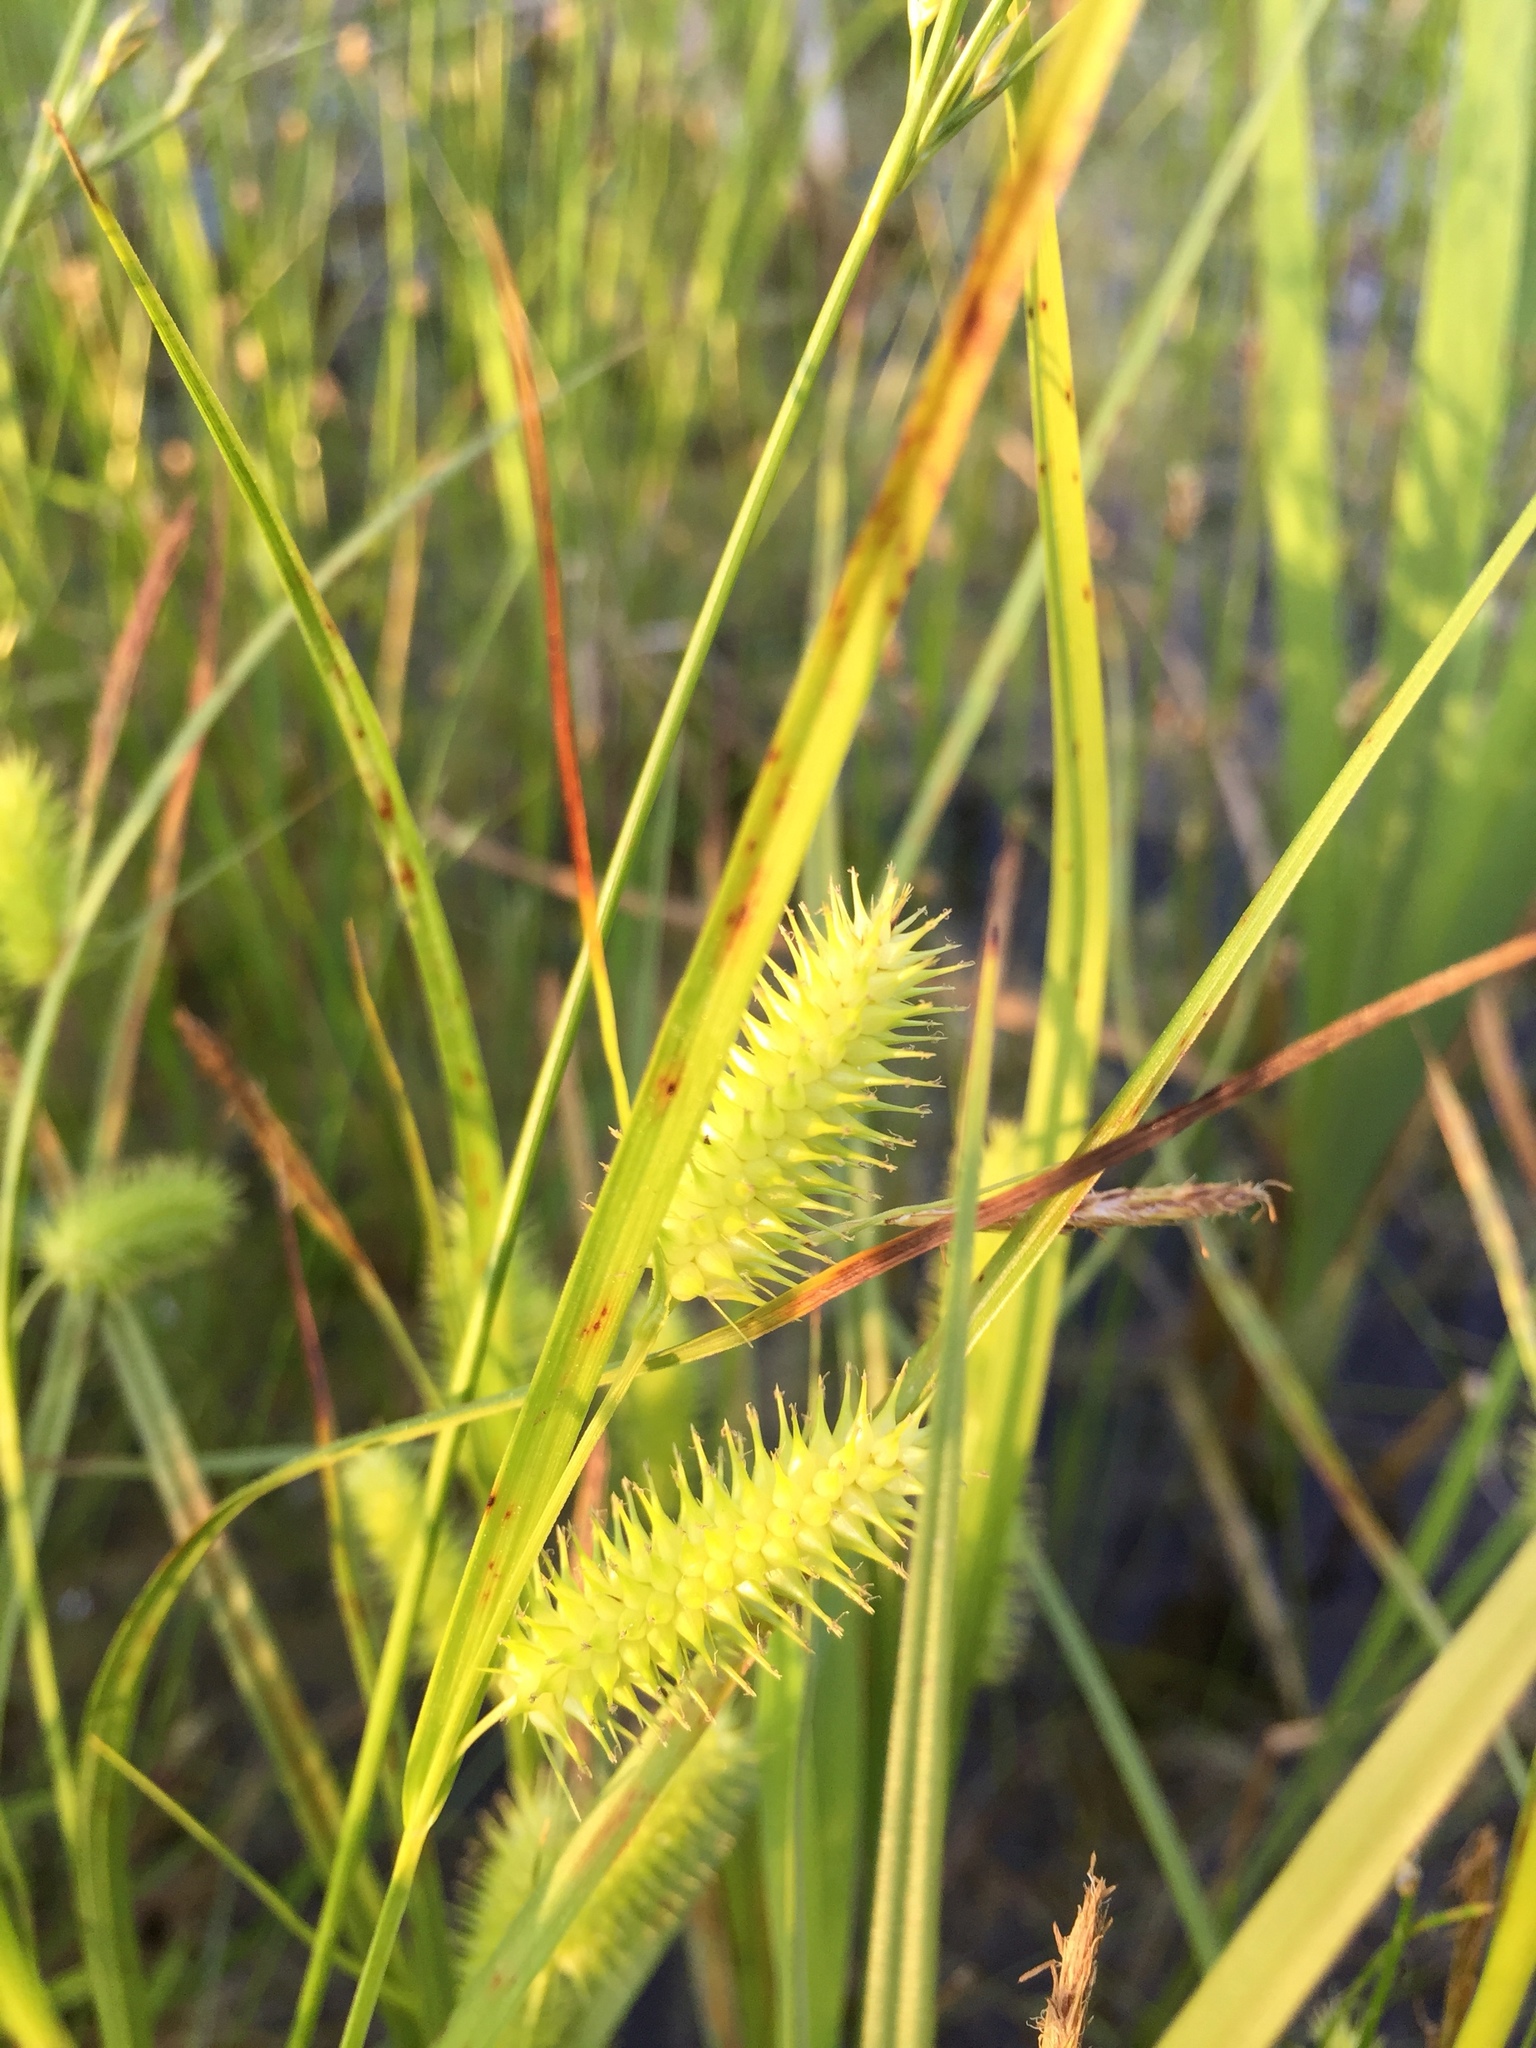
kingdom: Plantae
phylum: Tracheophyta
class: Liliopsida
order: Poales
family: Cyperaceae
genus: Carex
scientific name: Carex hystericina
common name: Bottlebrush sedge
